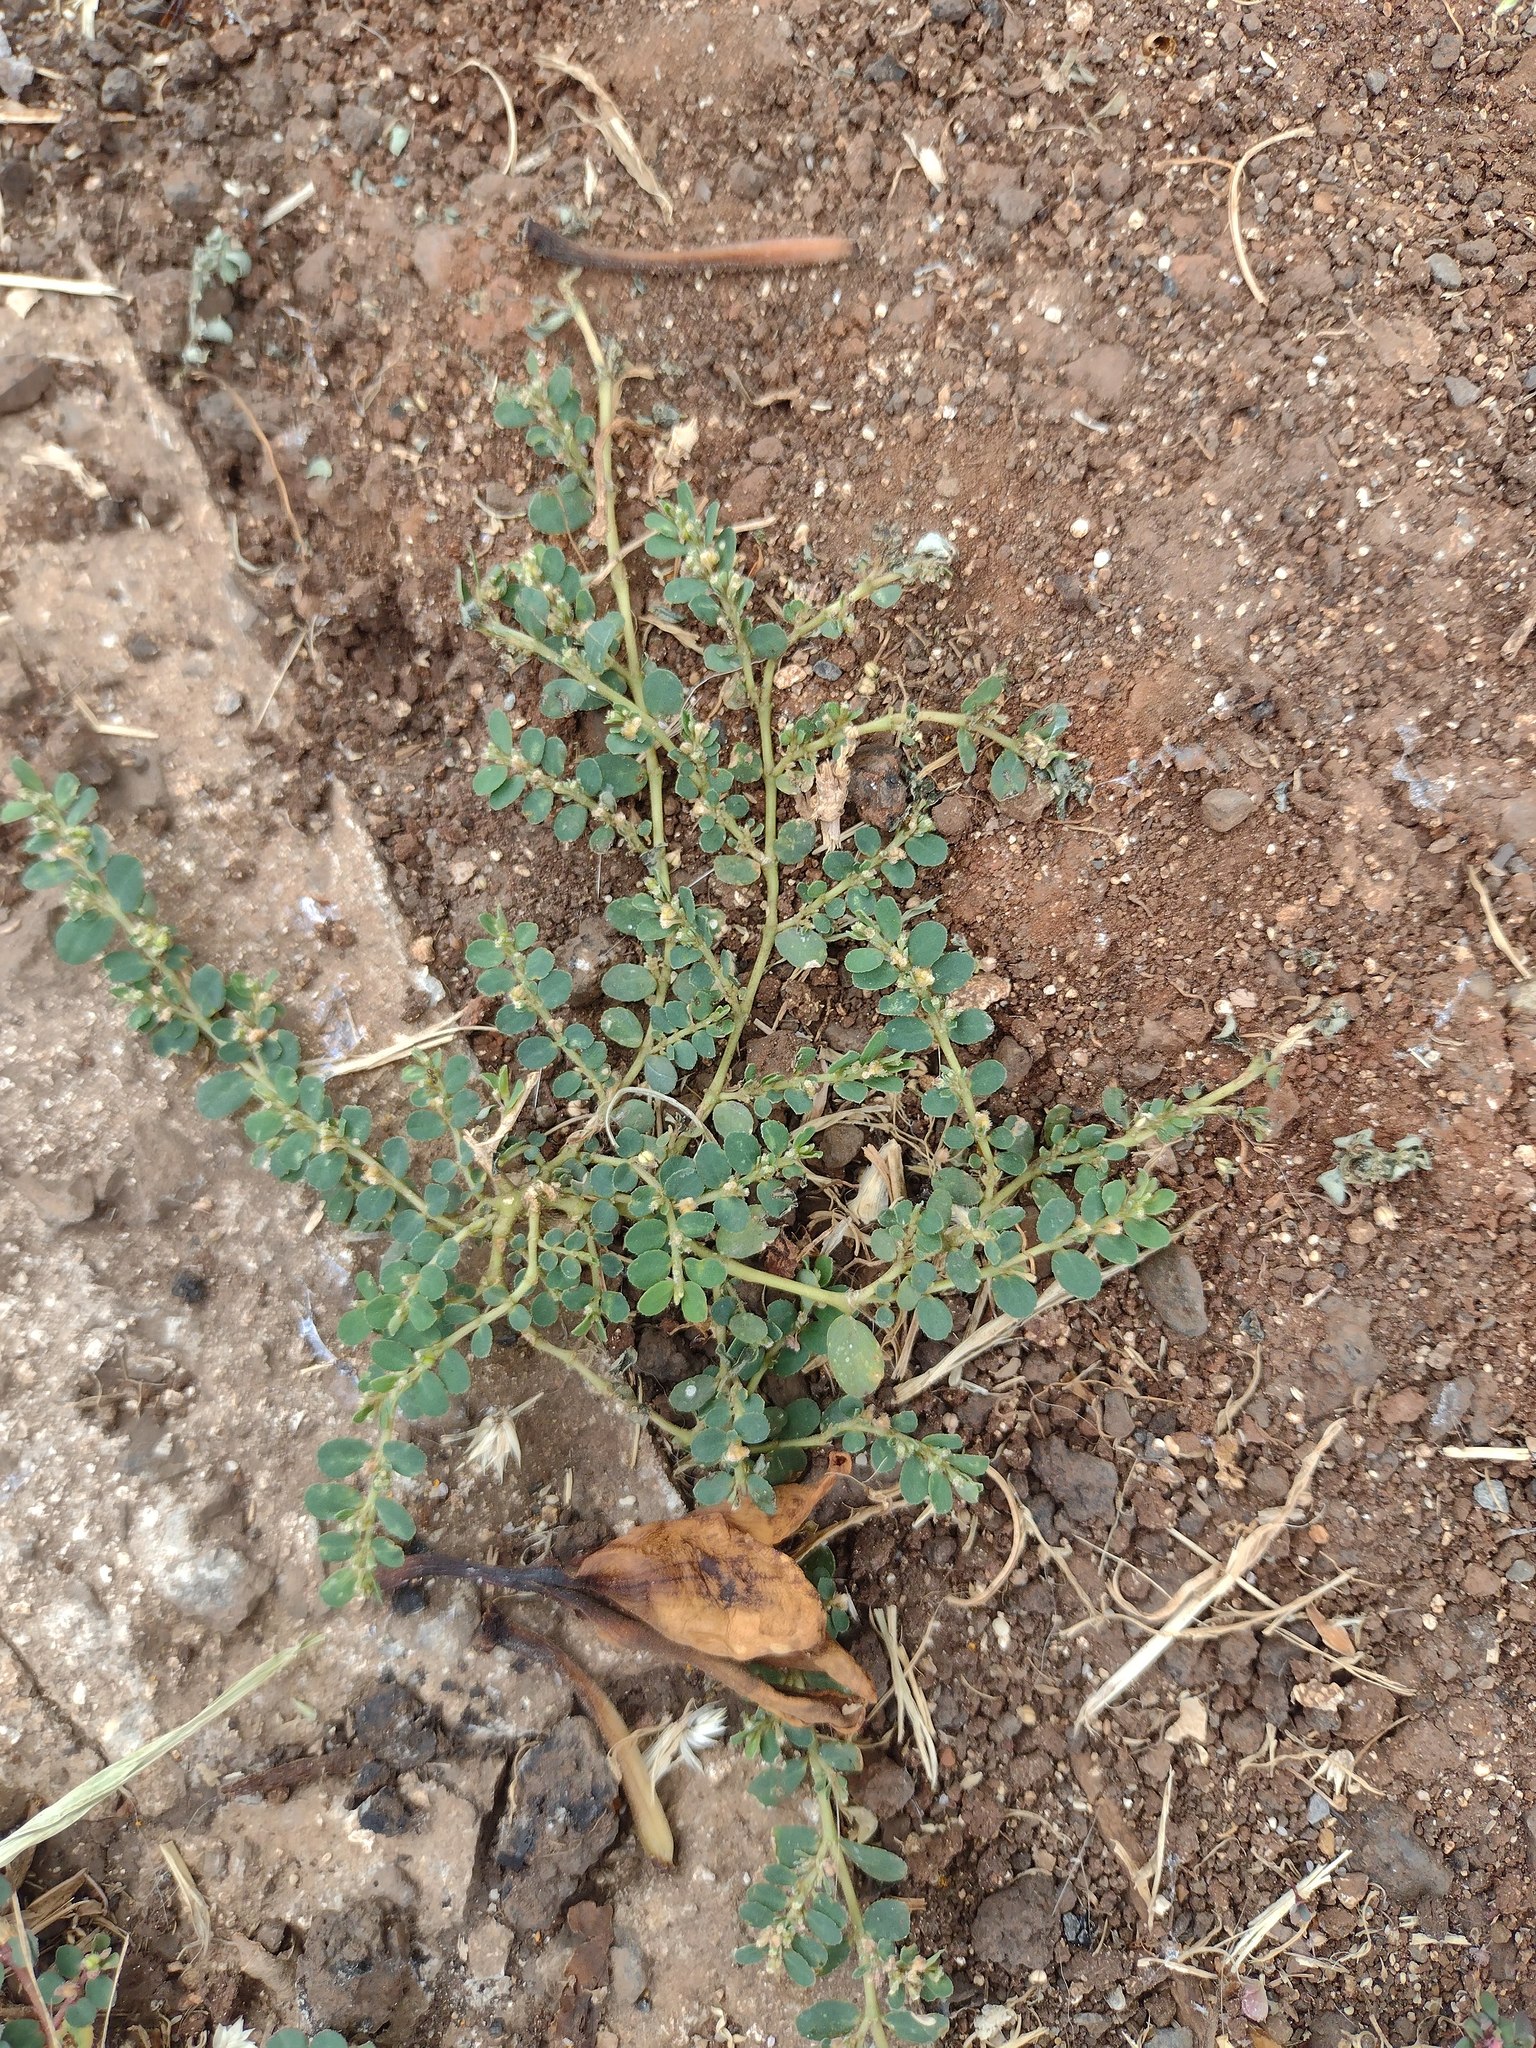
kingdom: Plantae
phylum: Tracheophyta
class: Magnoliopsida
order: Malpighiales
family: Euphorbiaceae
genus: Euphorbia
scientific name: Euphorbia prostrata
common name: Prostrate sandmat
